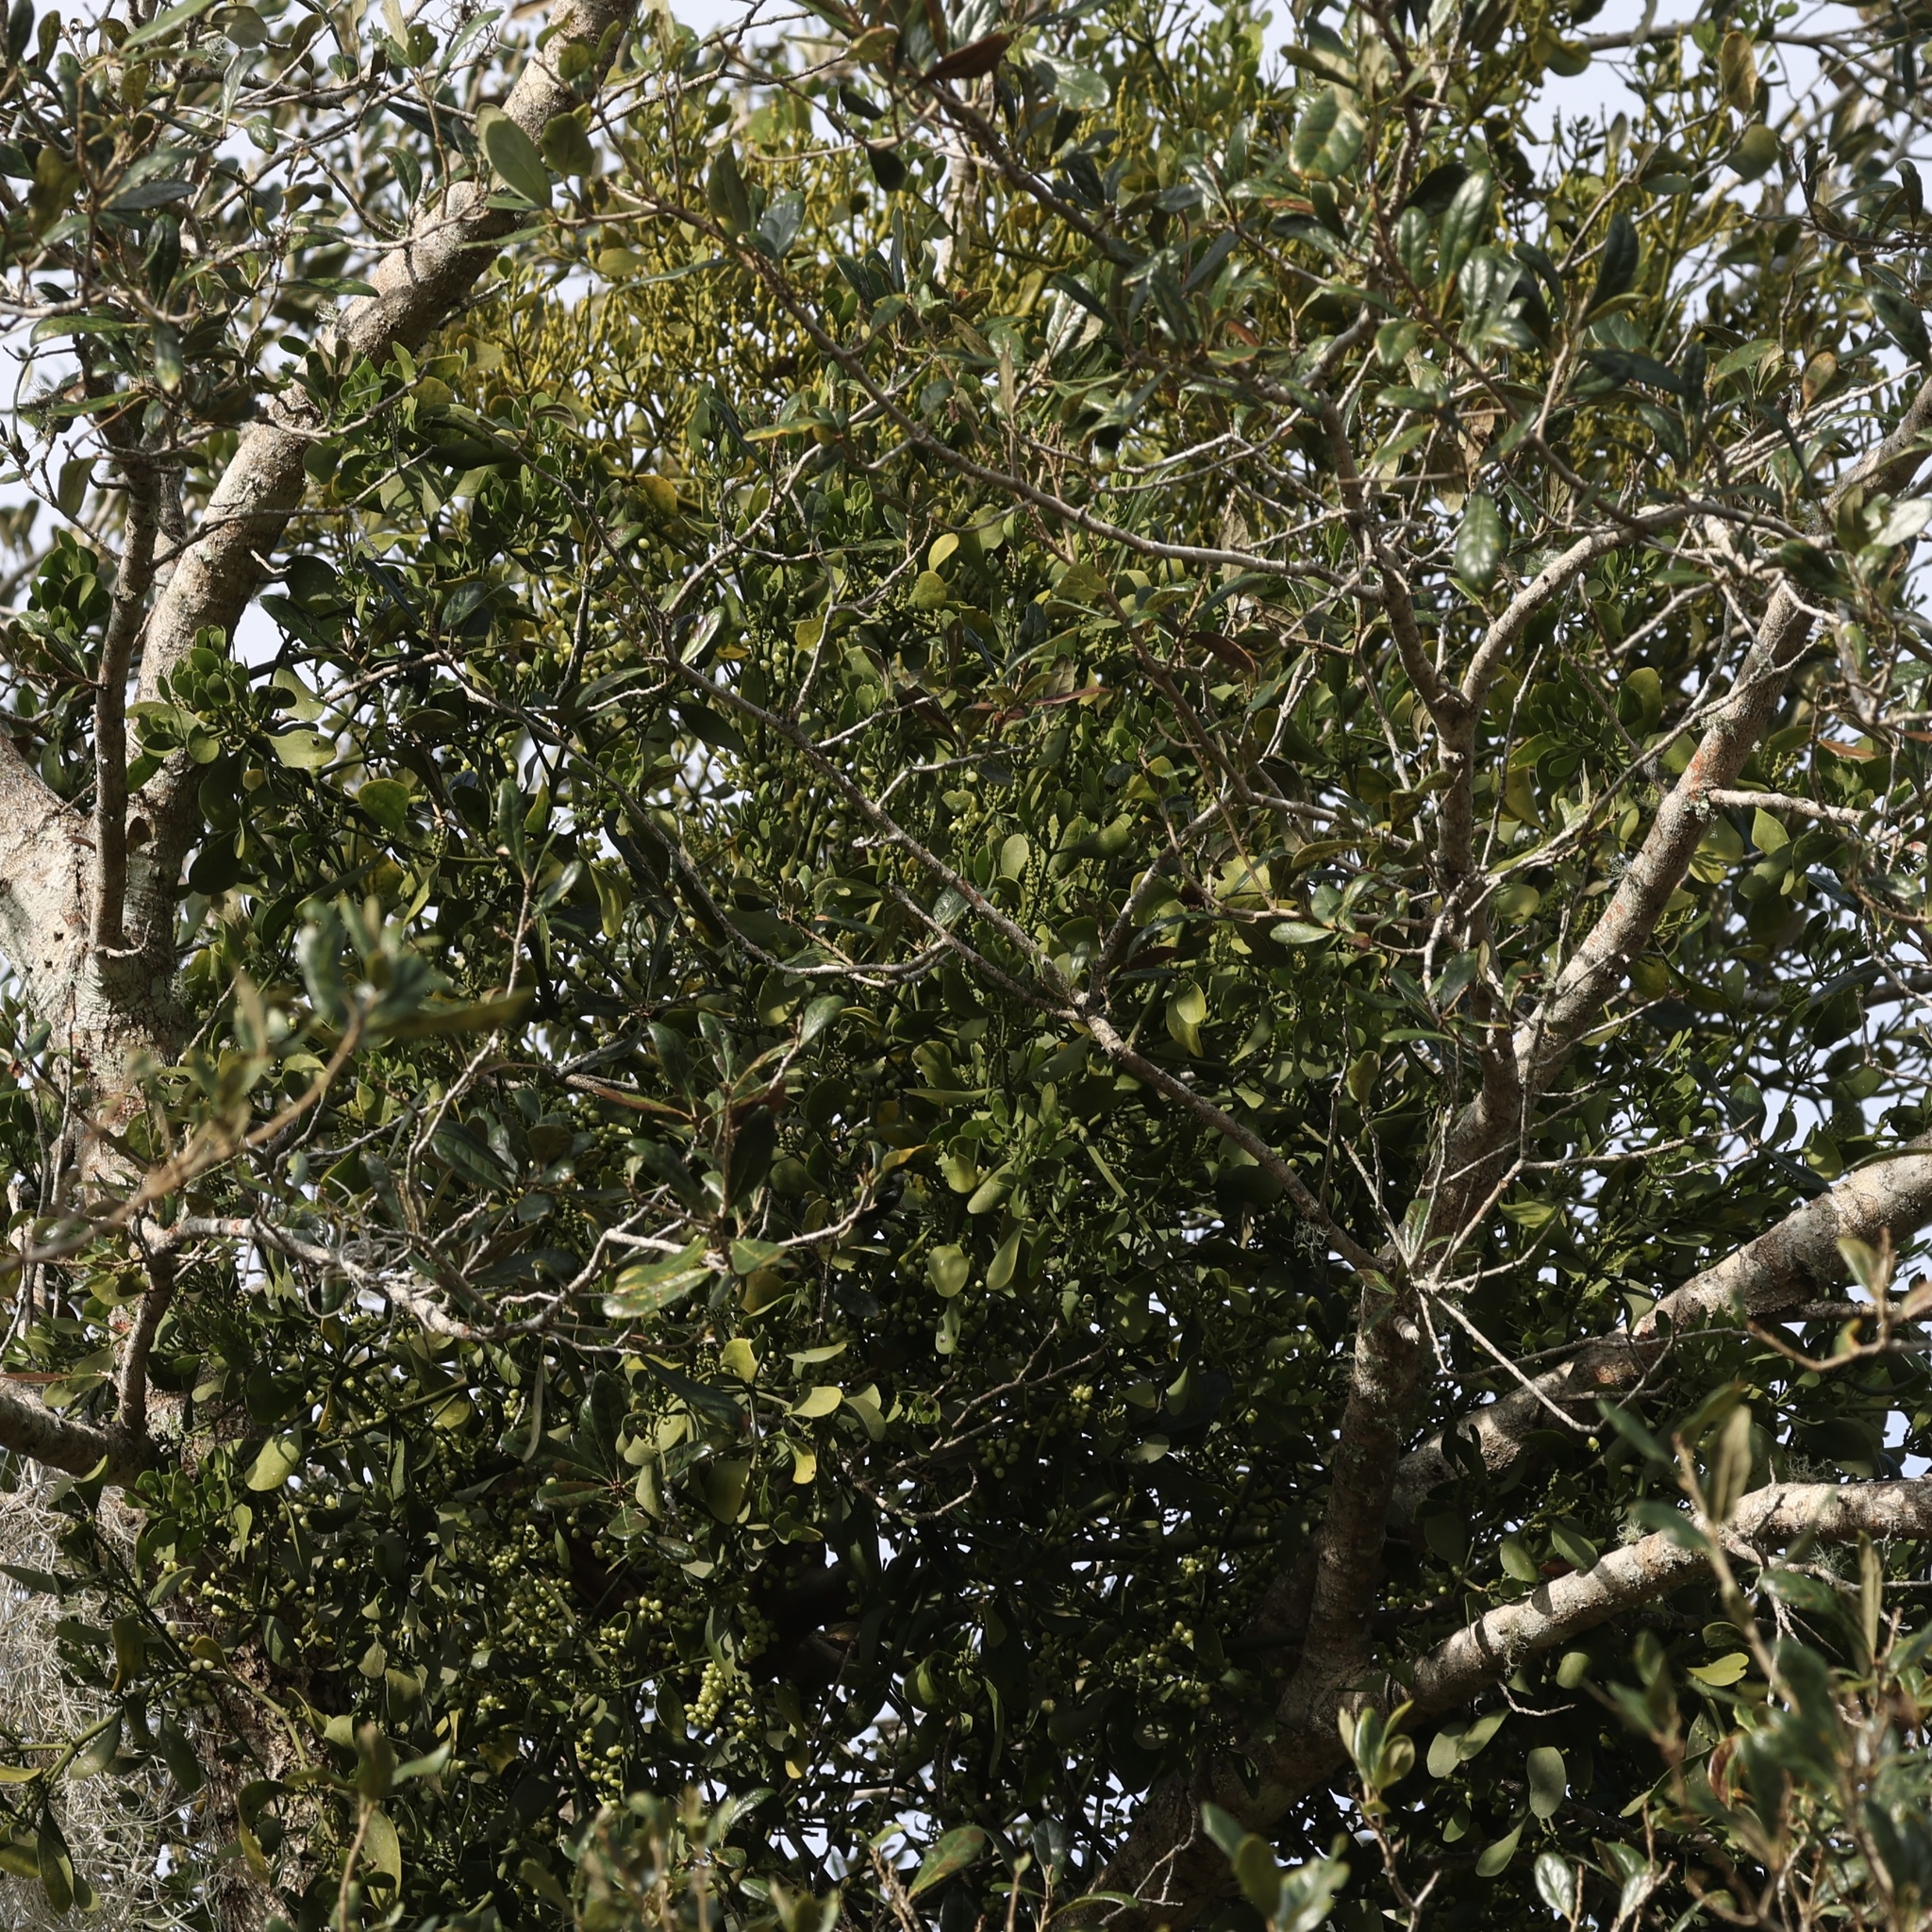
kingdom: Plantae
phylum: Tracheophyta
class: Magnoliopsida
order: Santalales
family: Viscaceae
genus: Phoradendron
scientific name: Phoradendron leucarpum
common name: Pacific mistletoe
